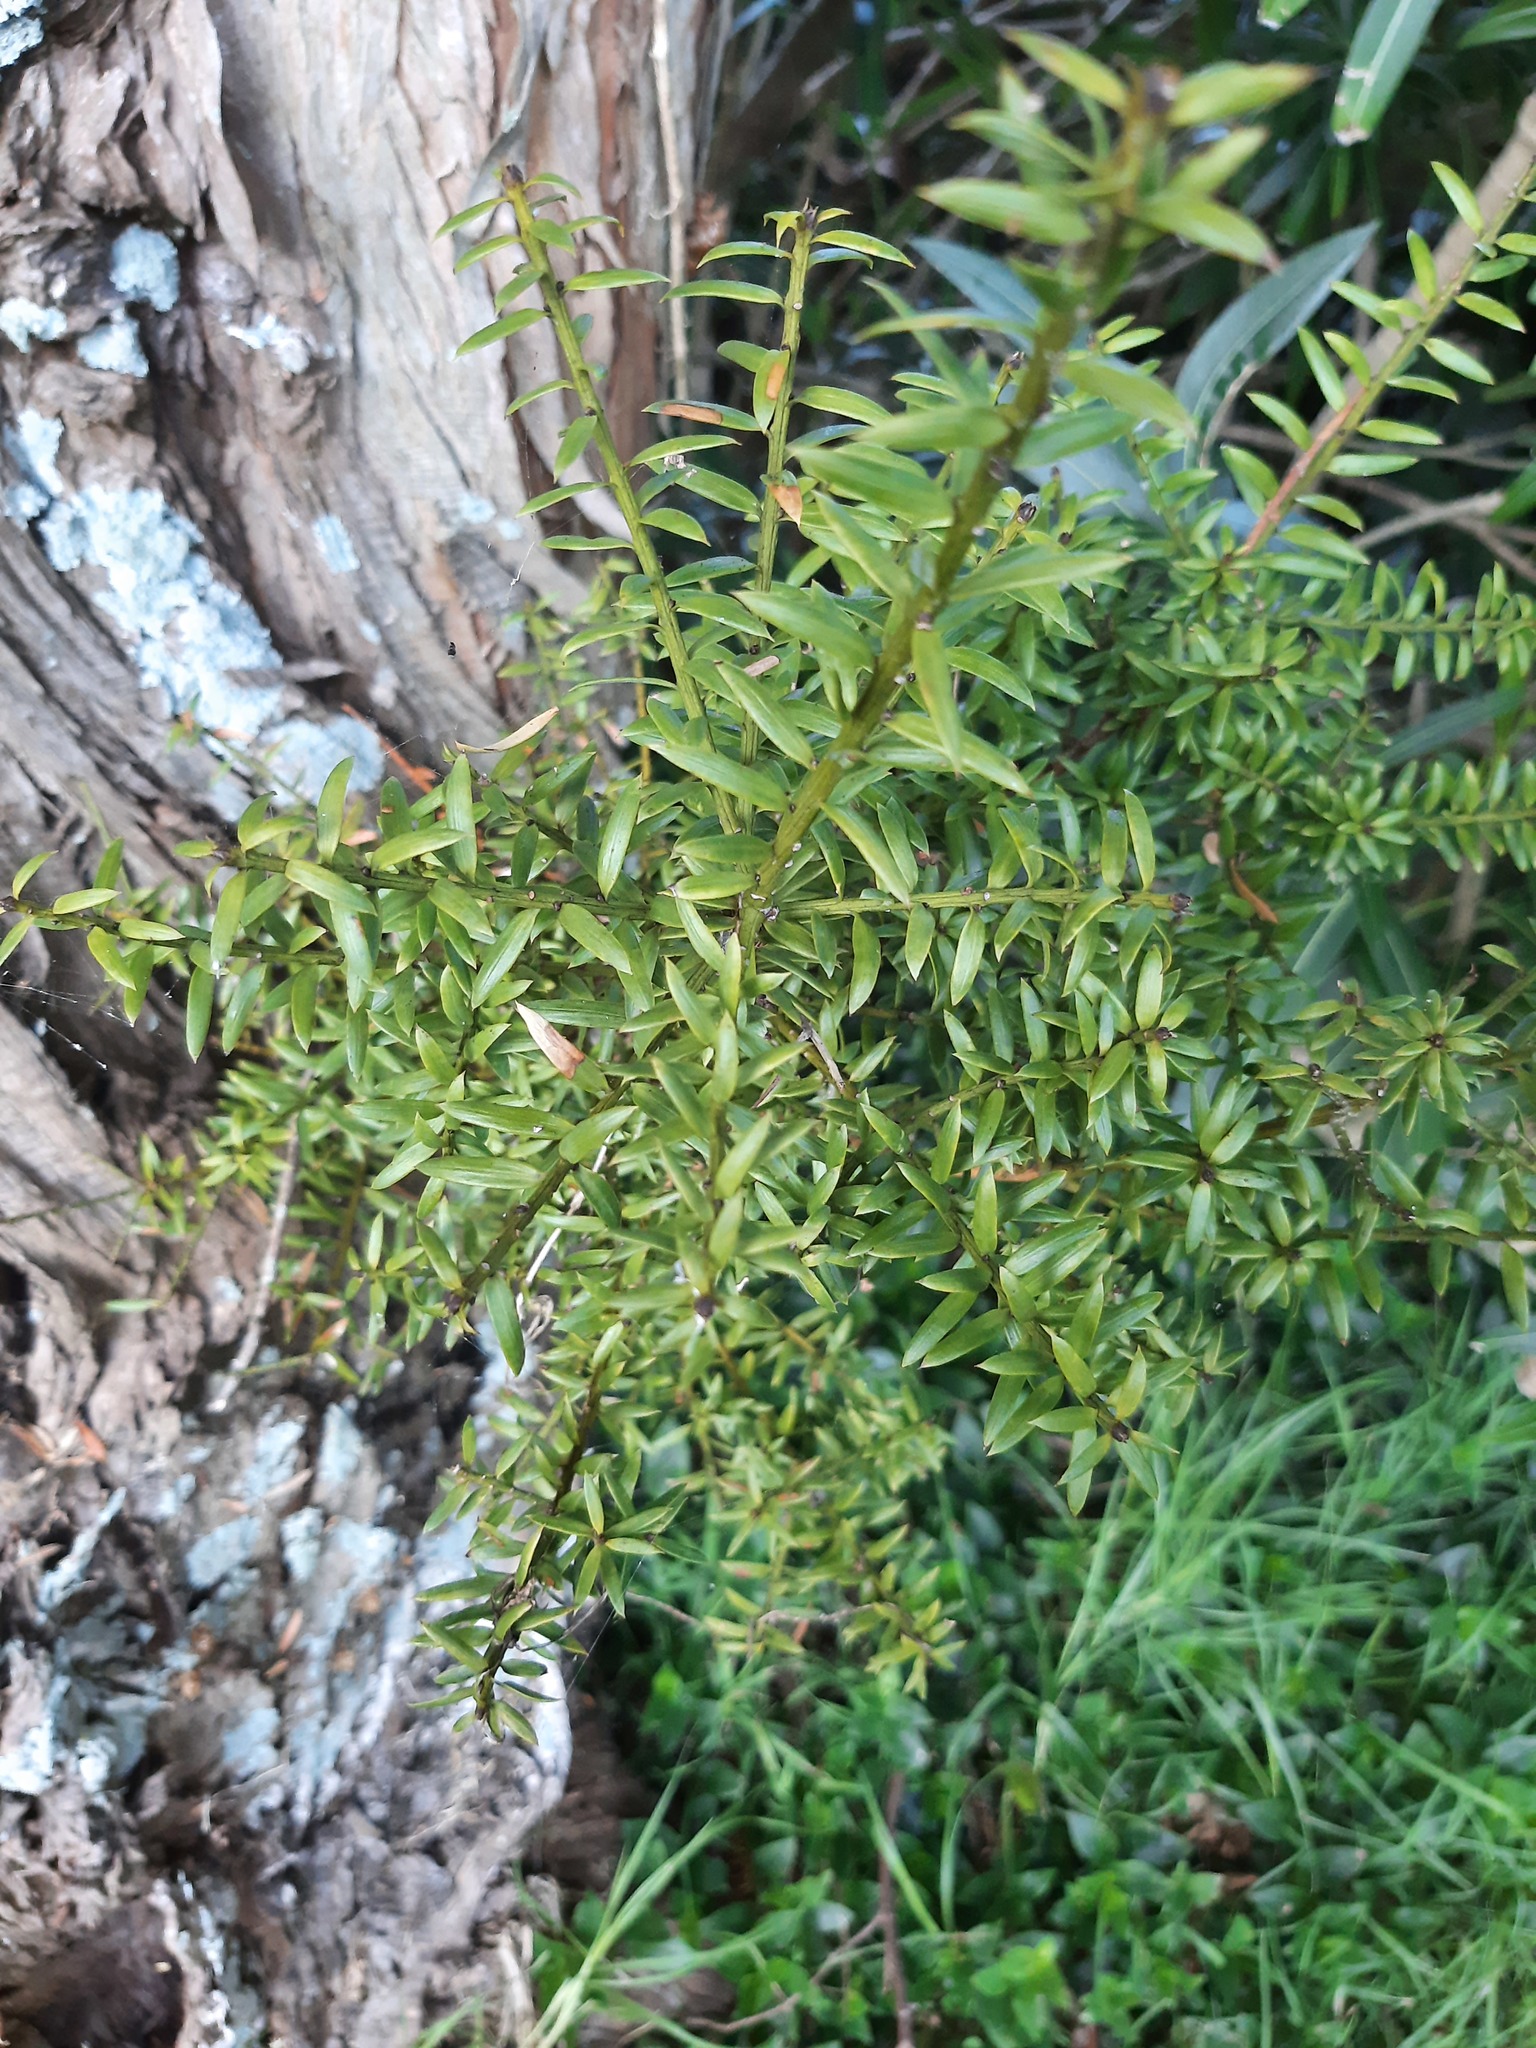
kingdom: Plantae
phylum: Tracheophyta
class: Pinopsida
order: Pinales
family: Podocarpaceae
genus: Podocarpus
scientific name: Podocarpus totara
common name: Totara
